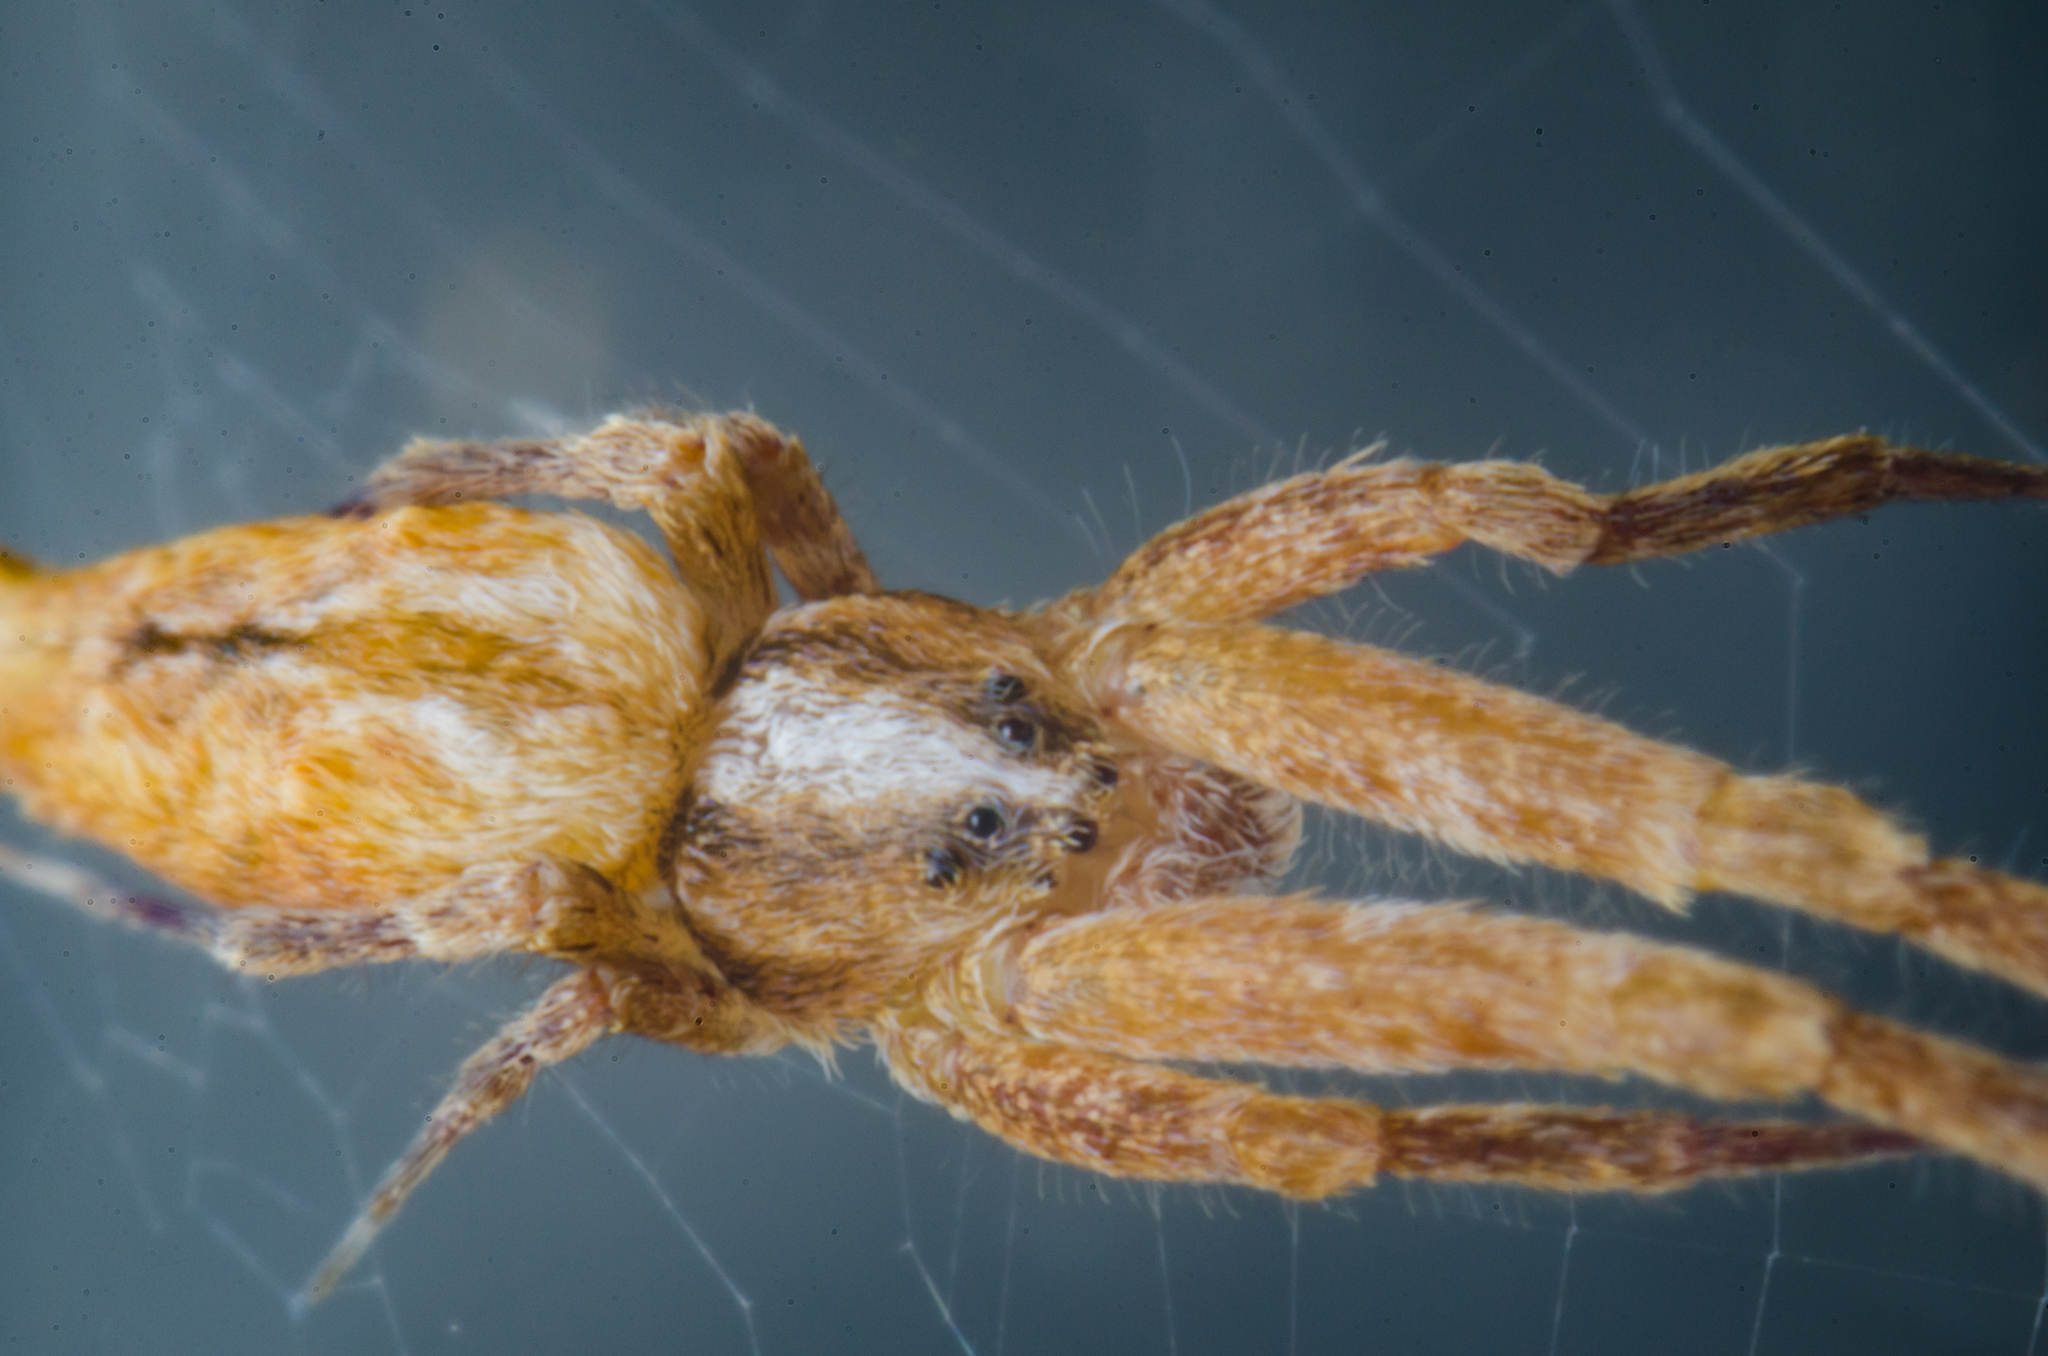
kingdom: Animalia
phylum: Arthropoda
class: Arachnida
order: Araneae
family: Uloboridae
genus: Uloborus
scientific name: Uloborus glomosus
